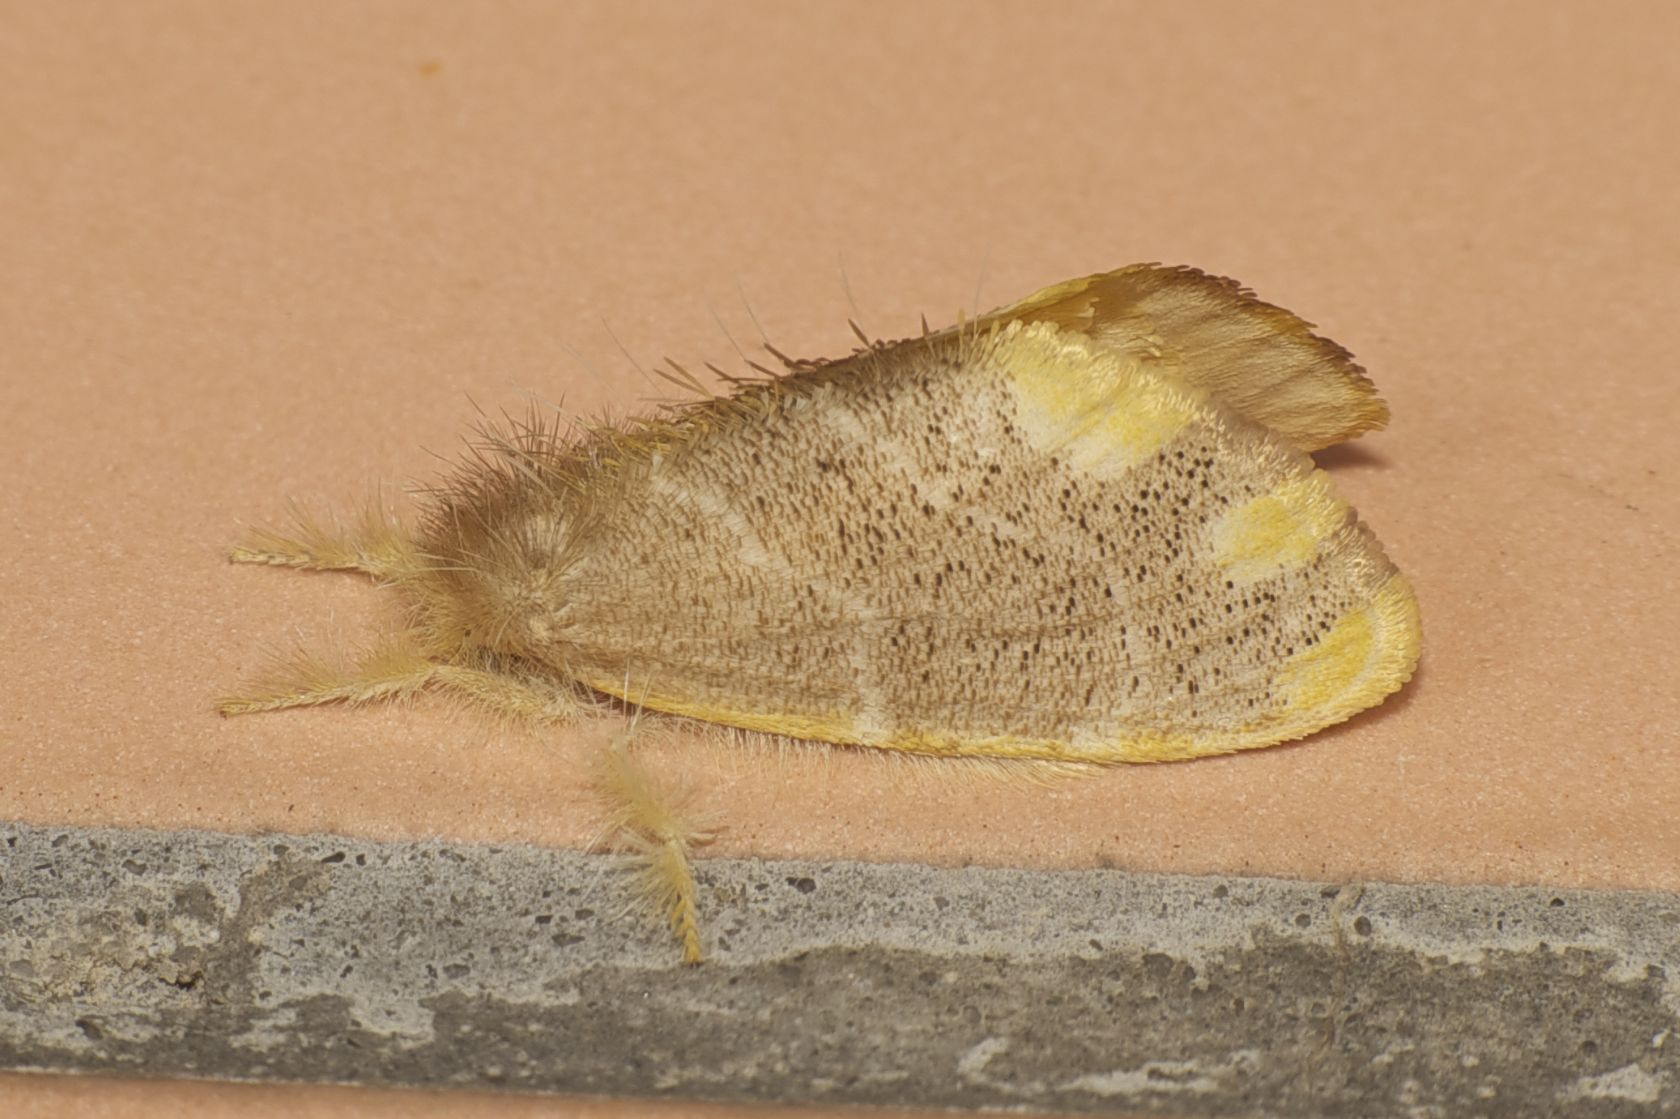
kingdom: Animalia
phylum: Arthropoda
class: Insecta
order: Lepidoptera
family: Erebidae
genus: Orvasca
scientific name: Orvasca subnotata
